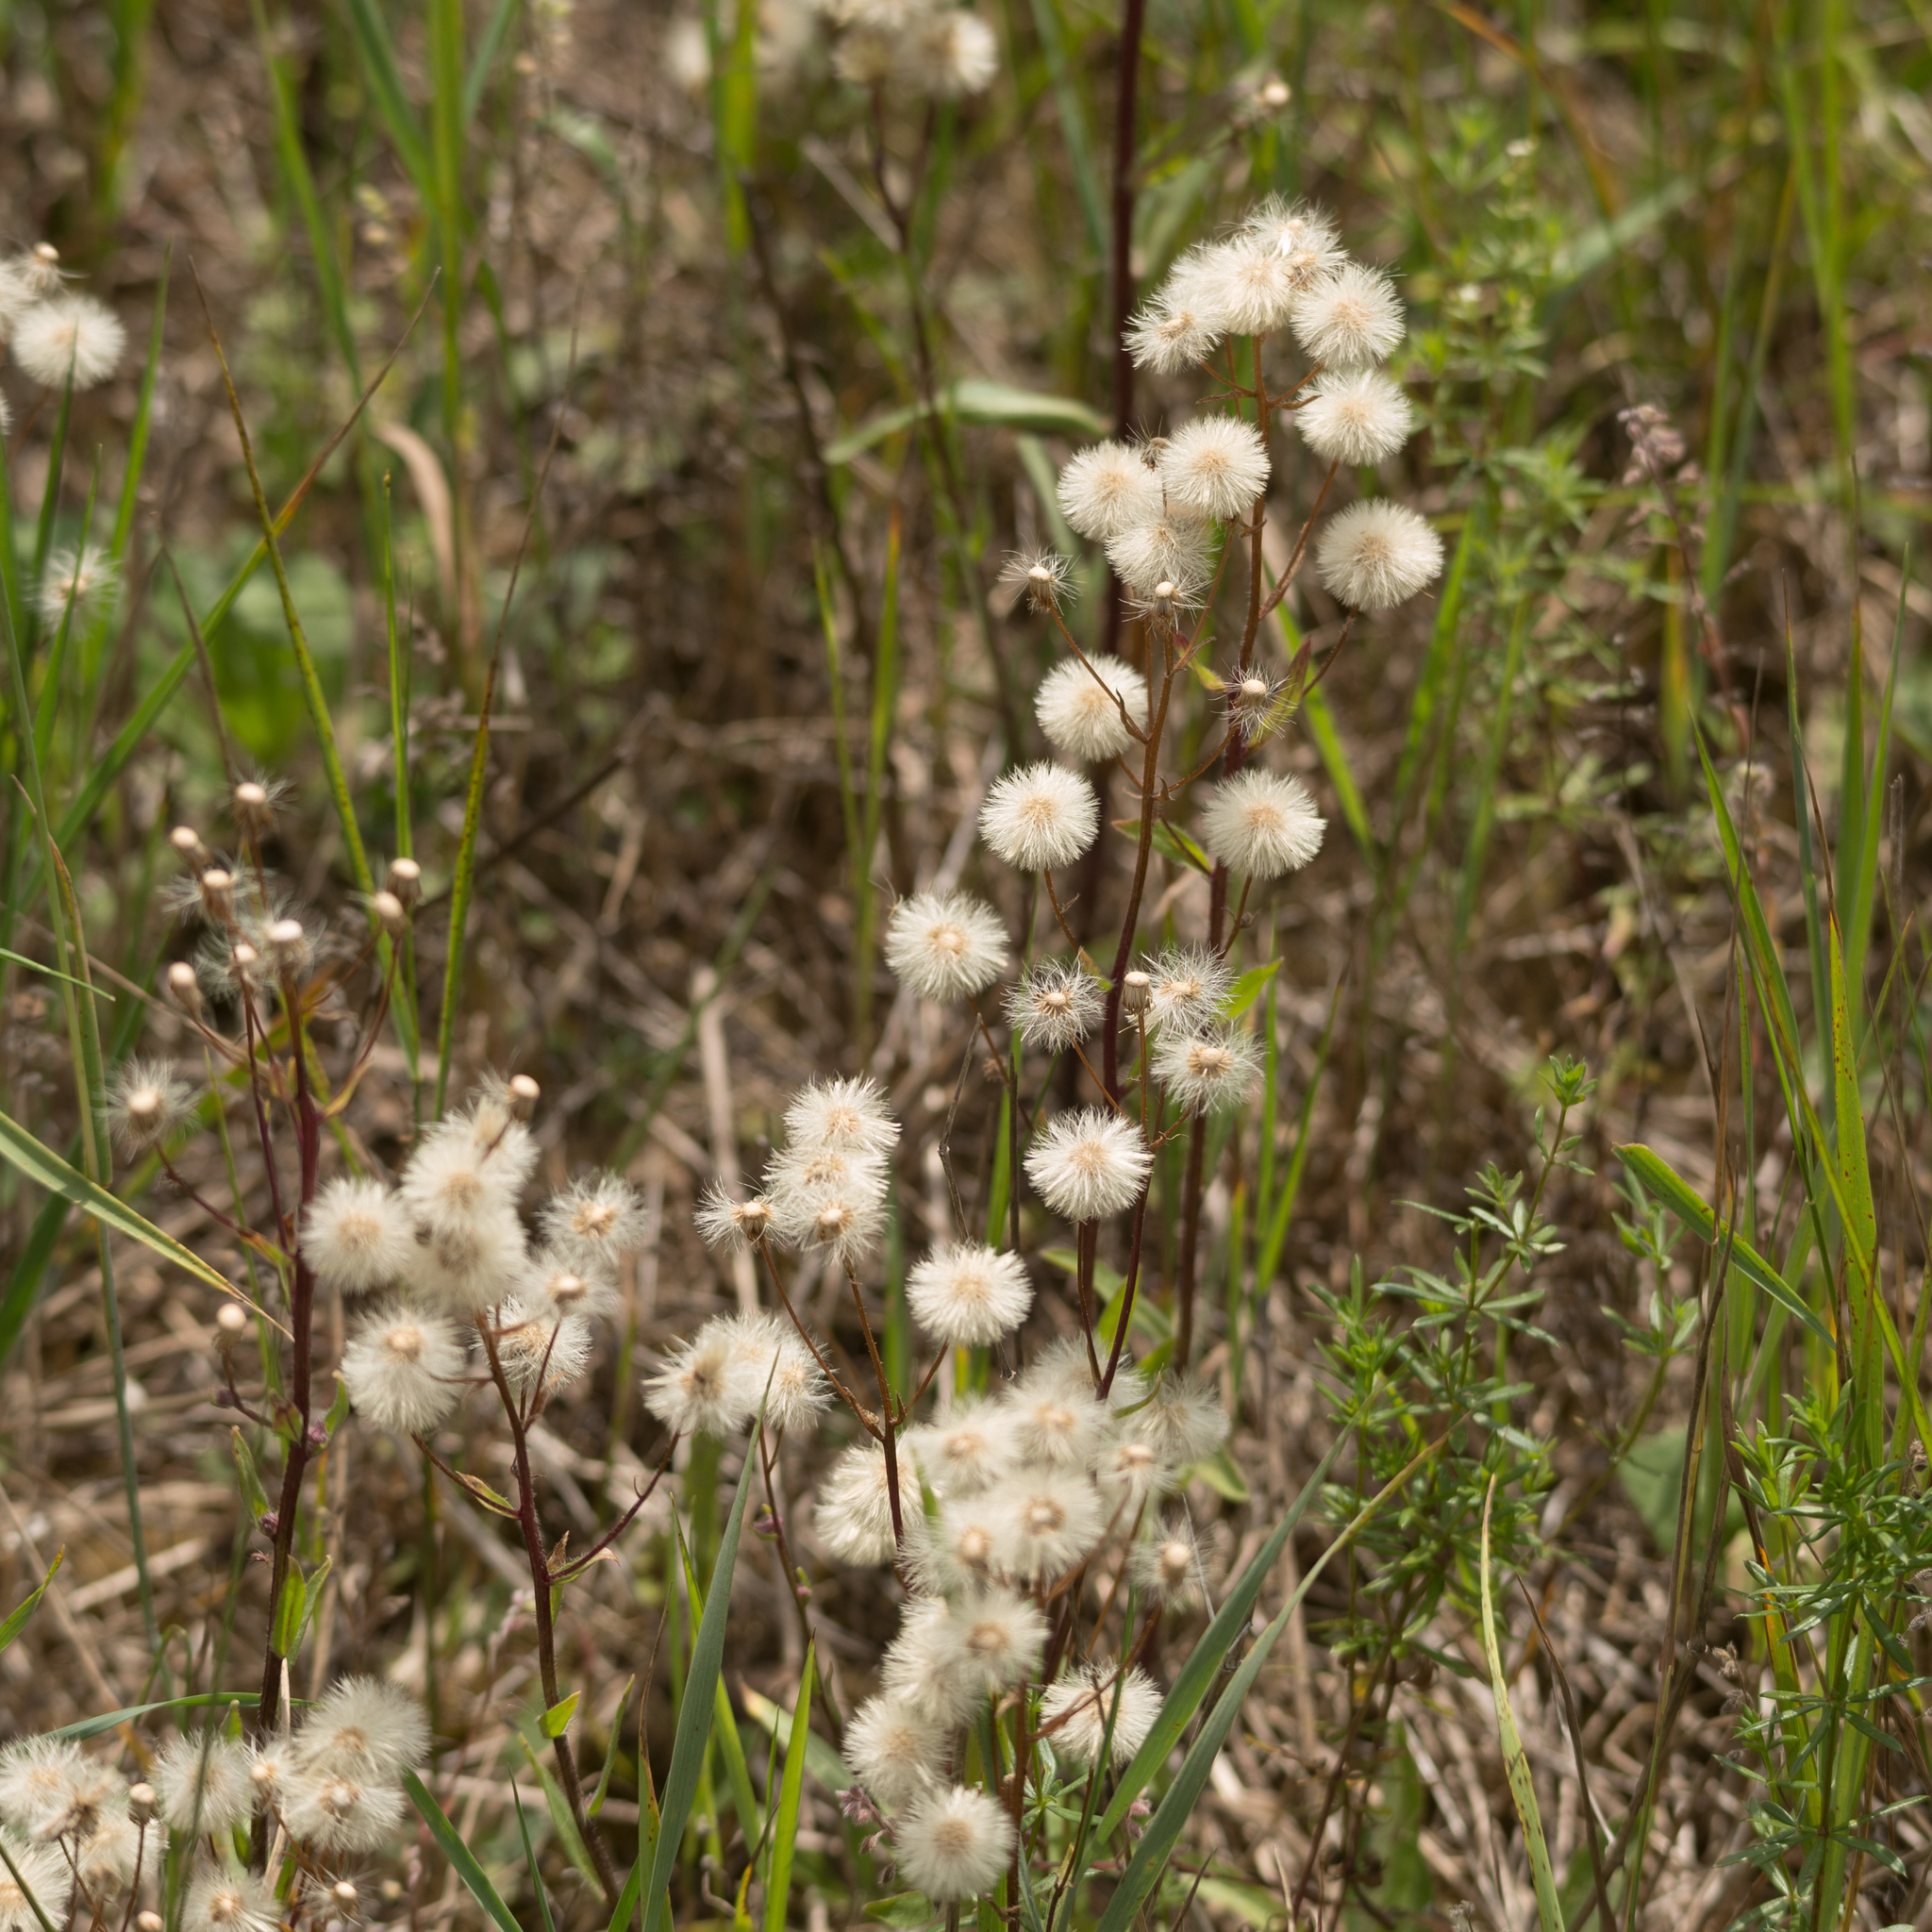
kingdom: Plantae
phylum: Tracheophyta
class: Magnoliopsida
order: Asterales
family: Asteraceae
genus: Erigeron
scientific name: Erigeron acris
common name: Blue fleabane
